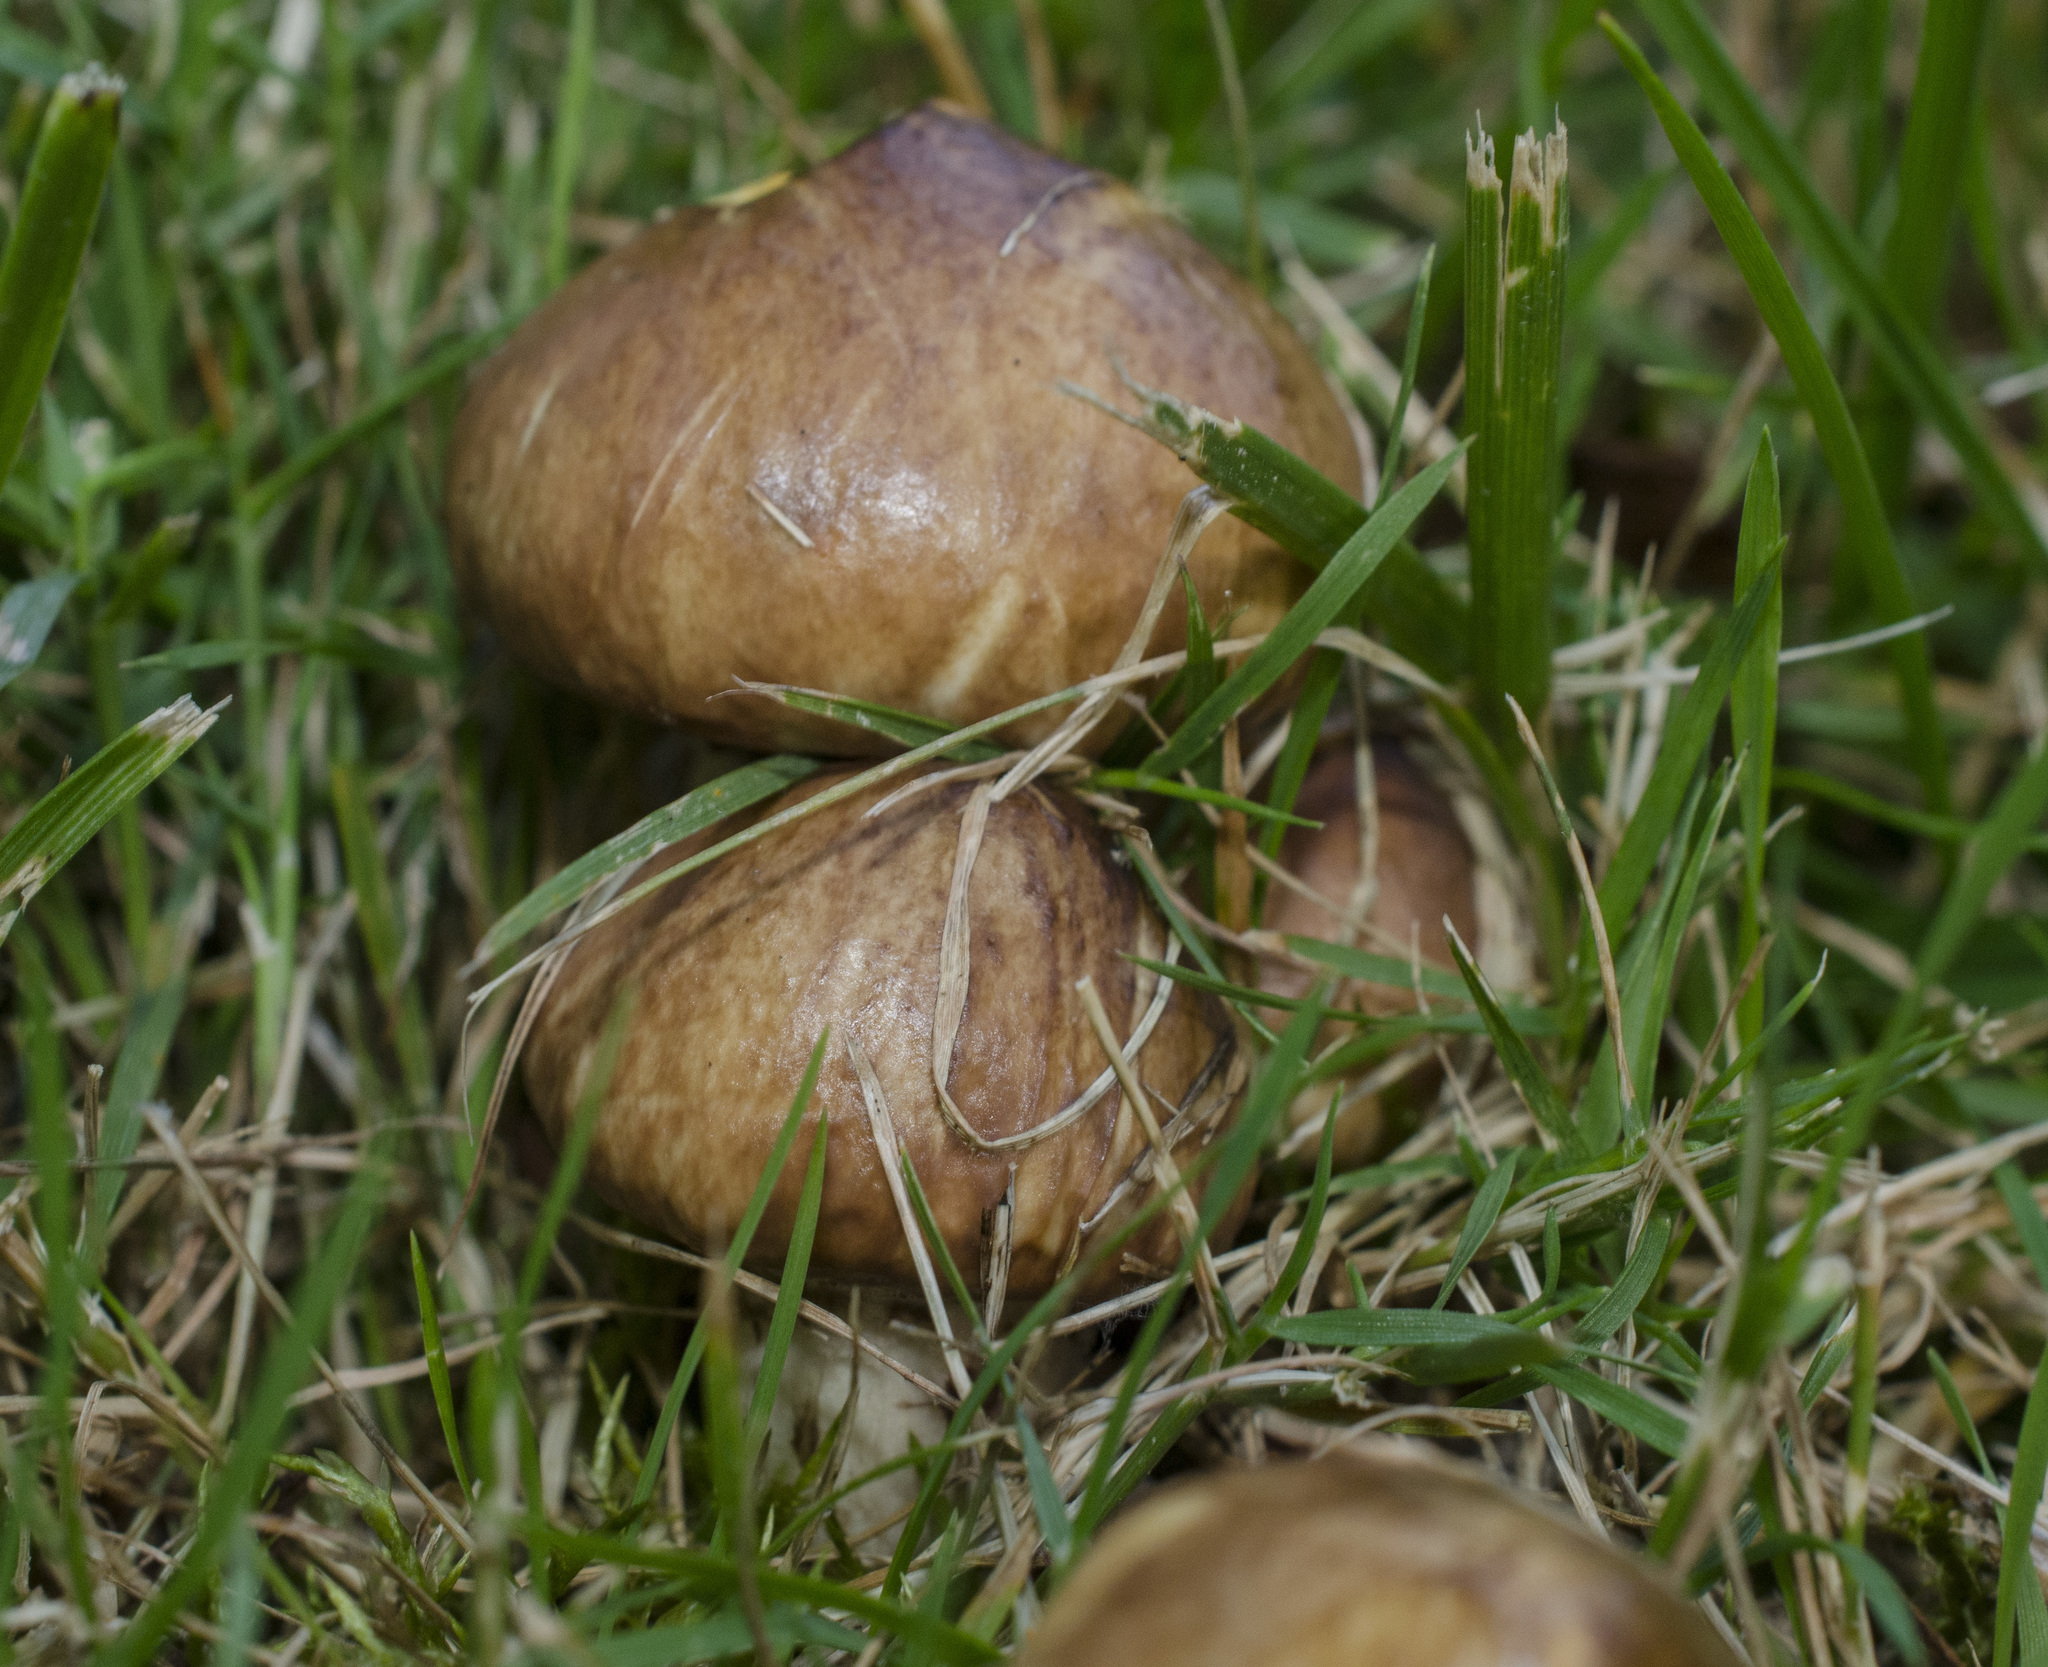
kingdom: Fungi
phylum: Basidiomycota
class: Agaricomycetes
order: Boletales
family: Suillaceae
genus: Suillus
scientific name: Suillus luteus
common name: Slippery jack
